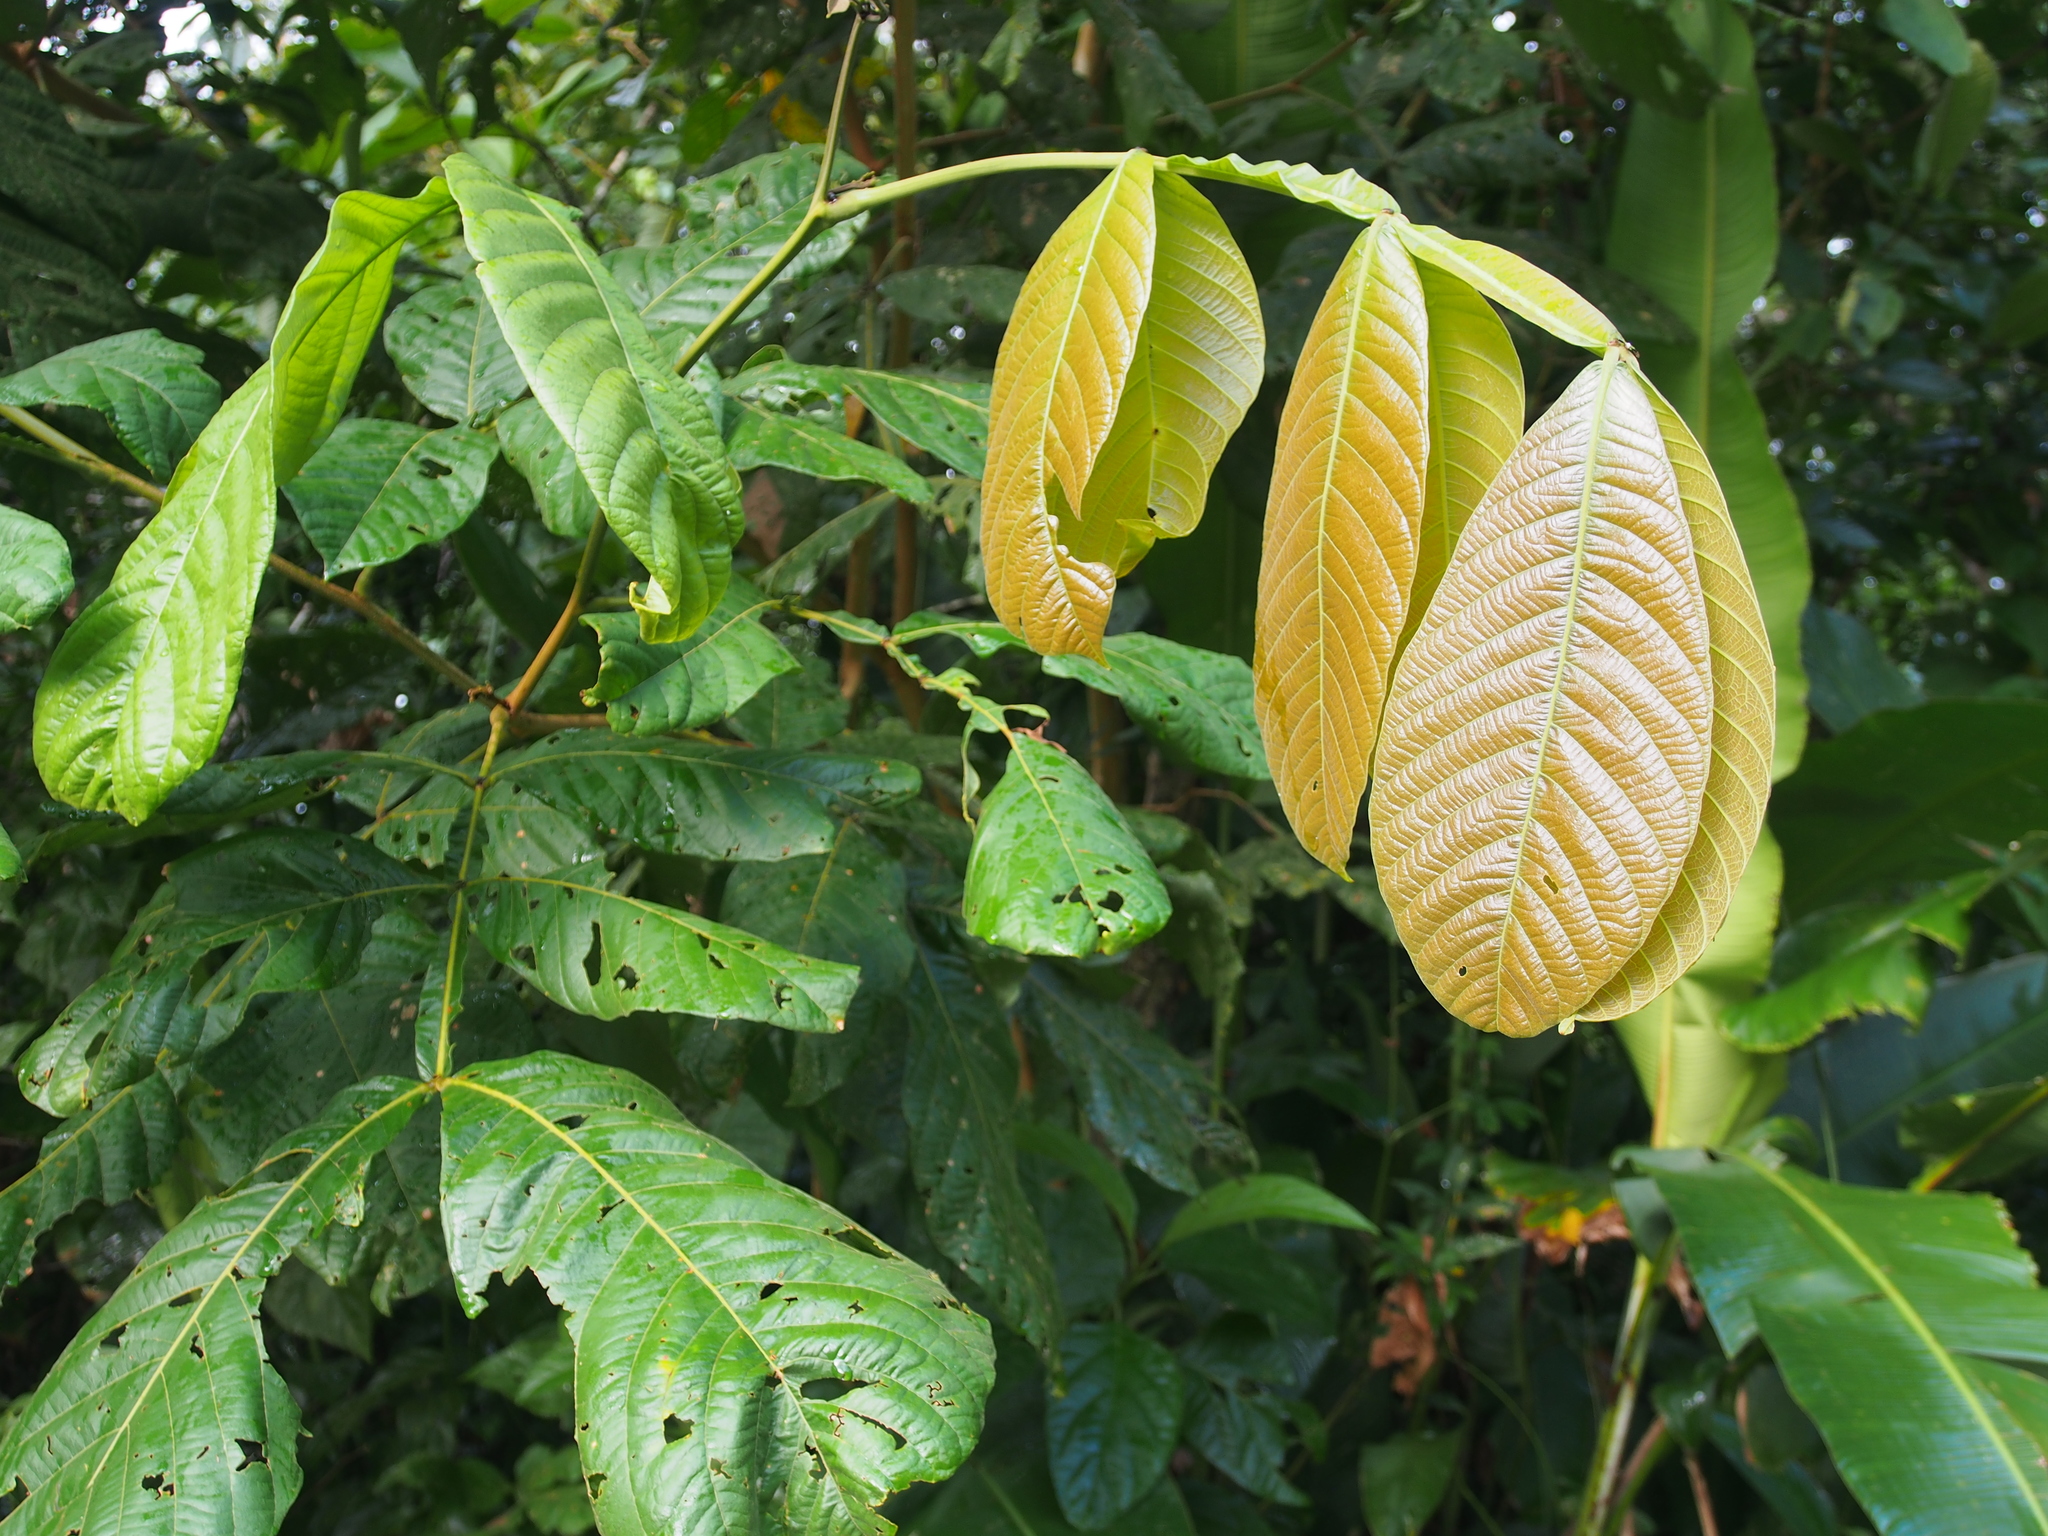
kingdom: Plantae
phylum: Tracheophyta
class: Magnoliopsida
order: Fabales
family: Fabaceae
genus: Inga
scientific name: Inga oerstediana
